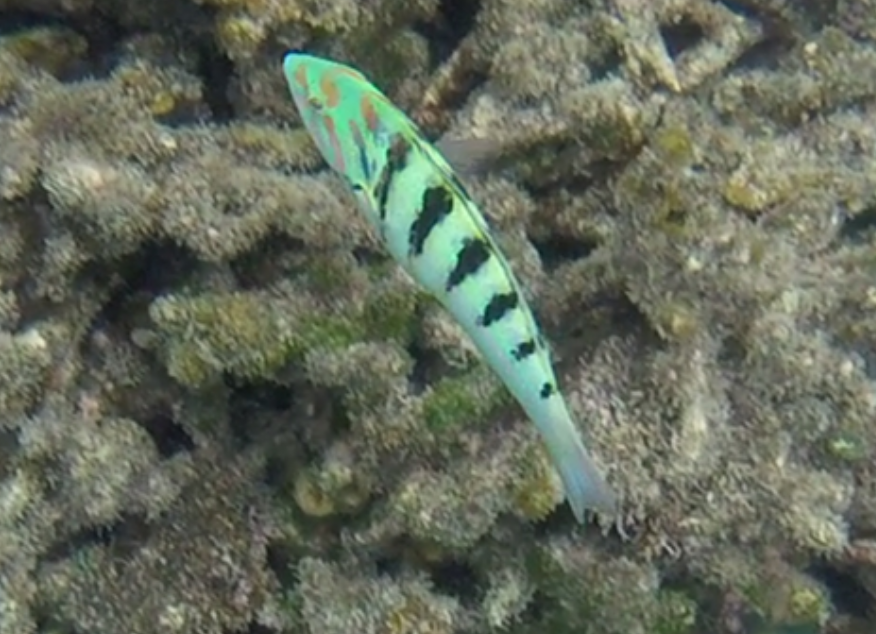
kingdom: Animalia
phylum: Chordata
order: Perciformes
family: Labridae
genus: Thalassoma
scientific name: Thalassoma hardwicke
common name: Sixbar wrasse
